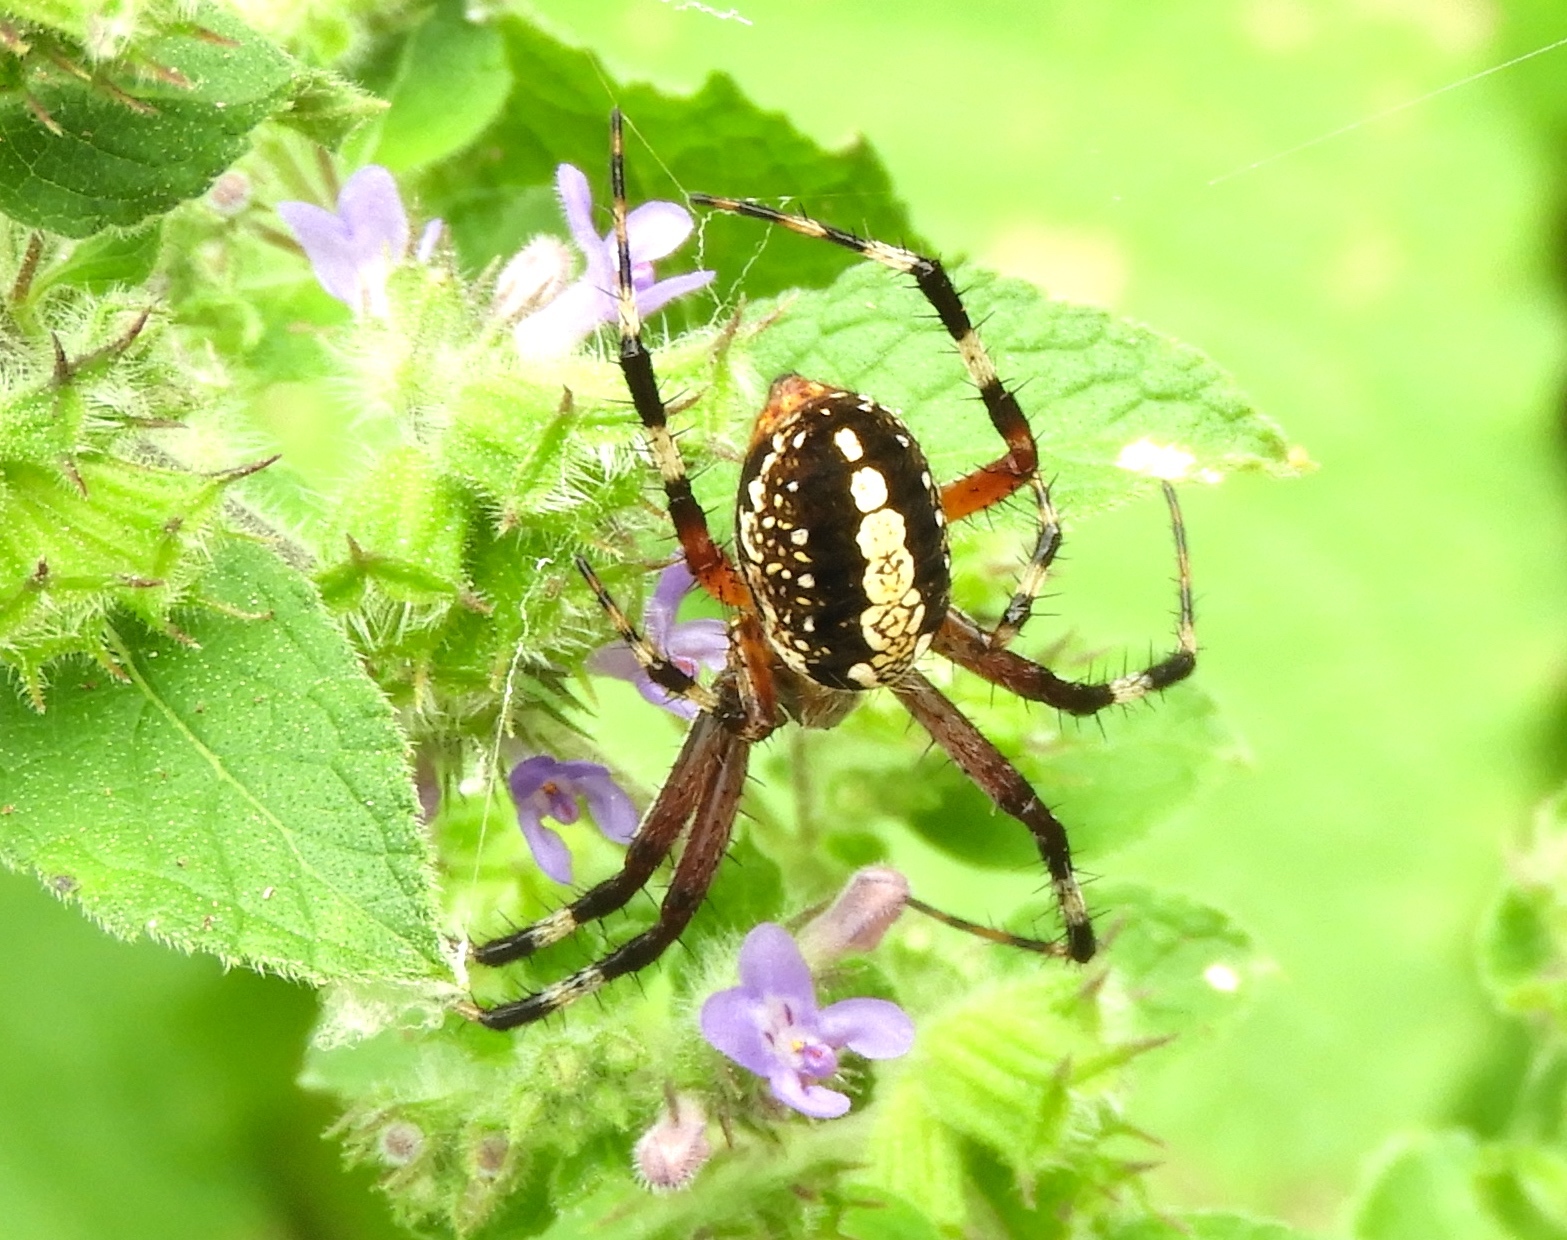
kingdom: Animalia
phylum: Arthropoda
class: Arachnida
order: Araneae
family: Araneidae
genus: Neoscona
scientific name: Neoscona oaxacensis
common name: Orb weavers
